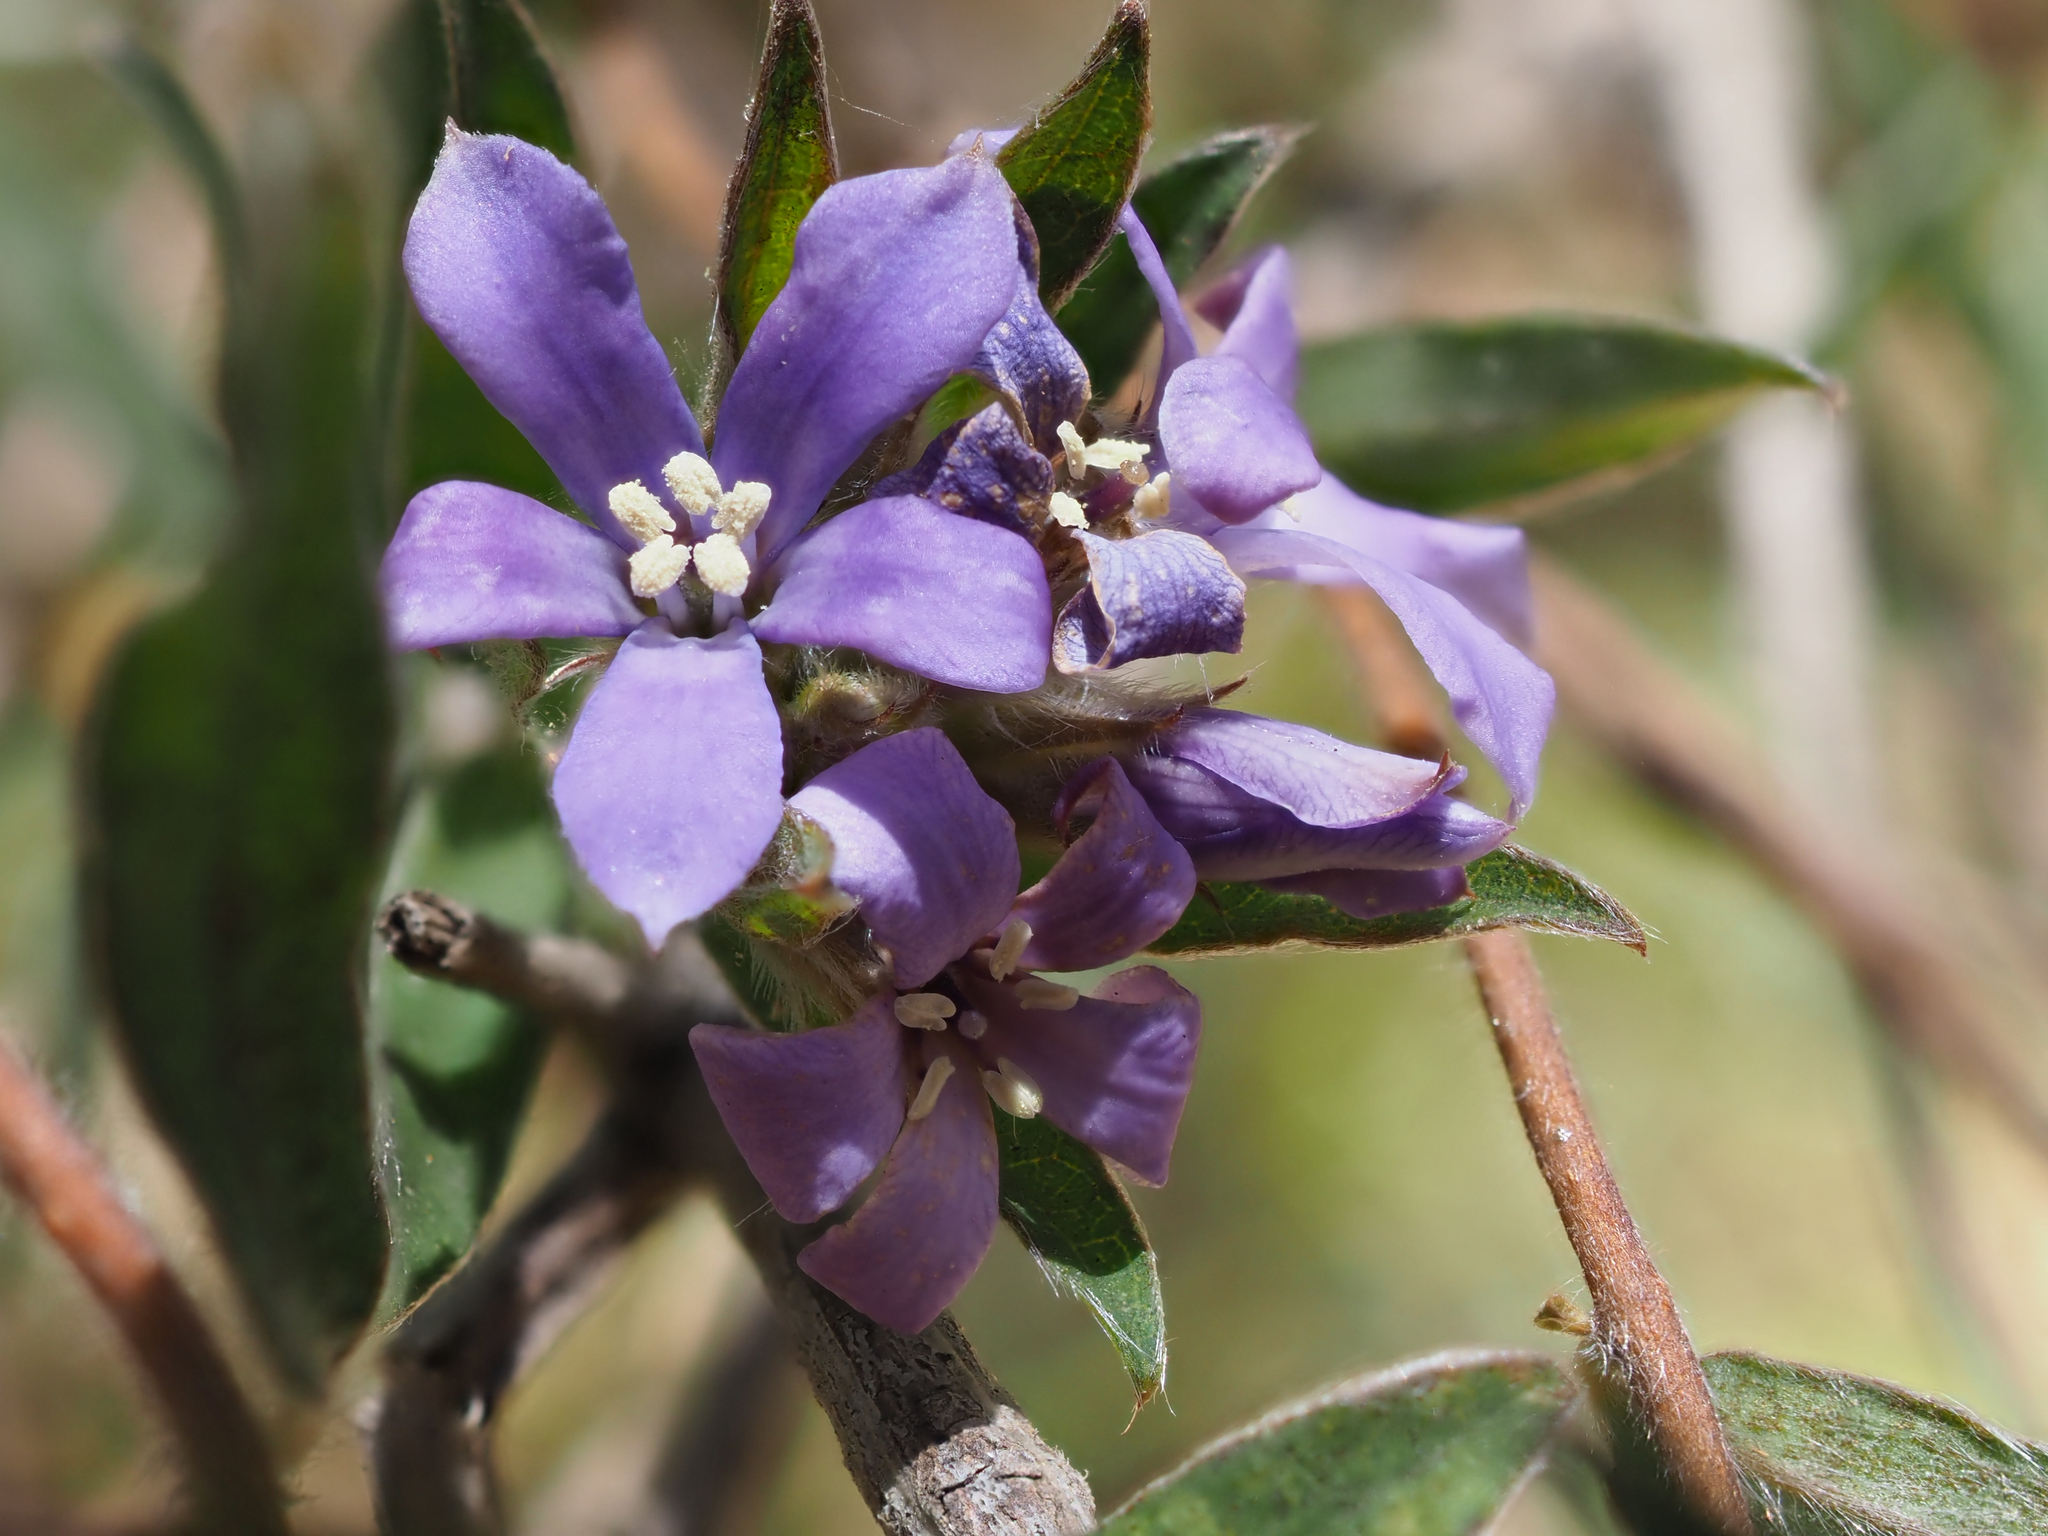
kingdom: Plantae
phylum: Tracheophyta
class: Magnoliopsida
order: Apiales
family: Pittosporaceae
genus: Billardiera
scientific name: Billardiera variifolia
